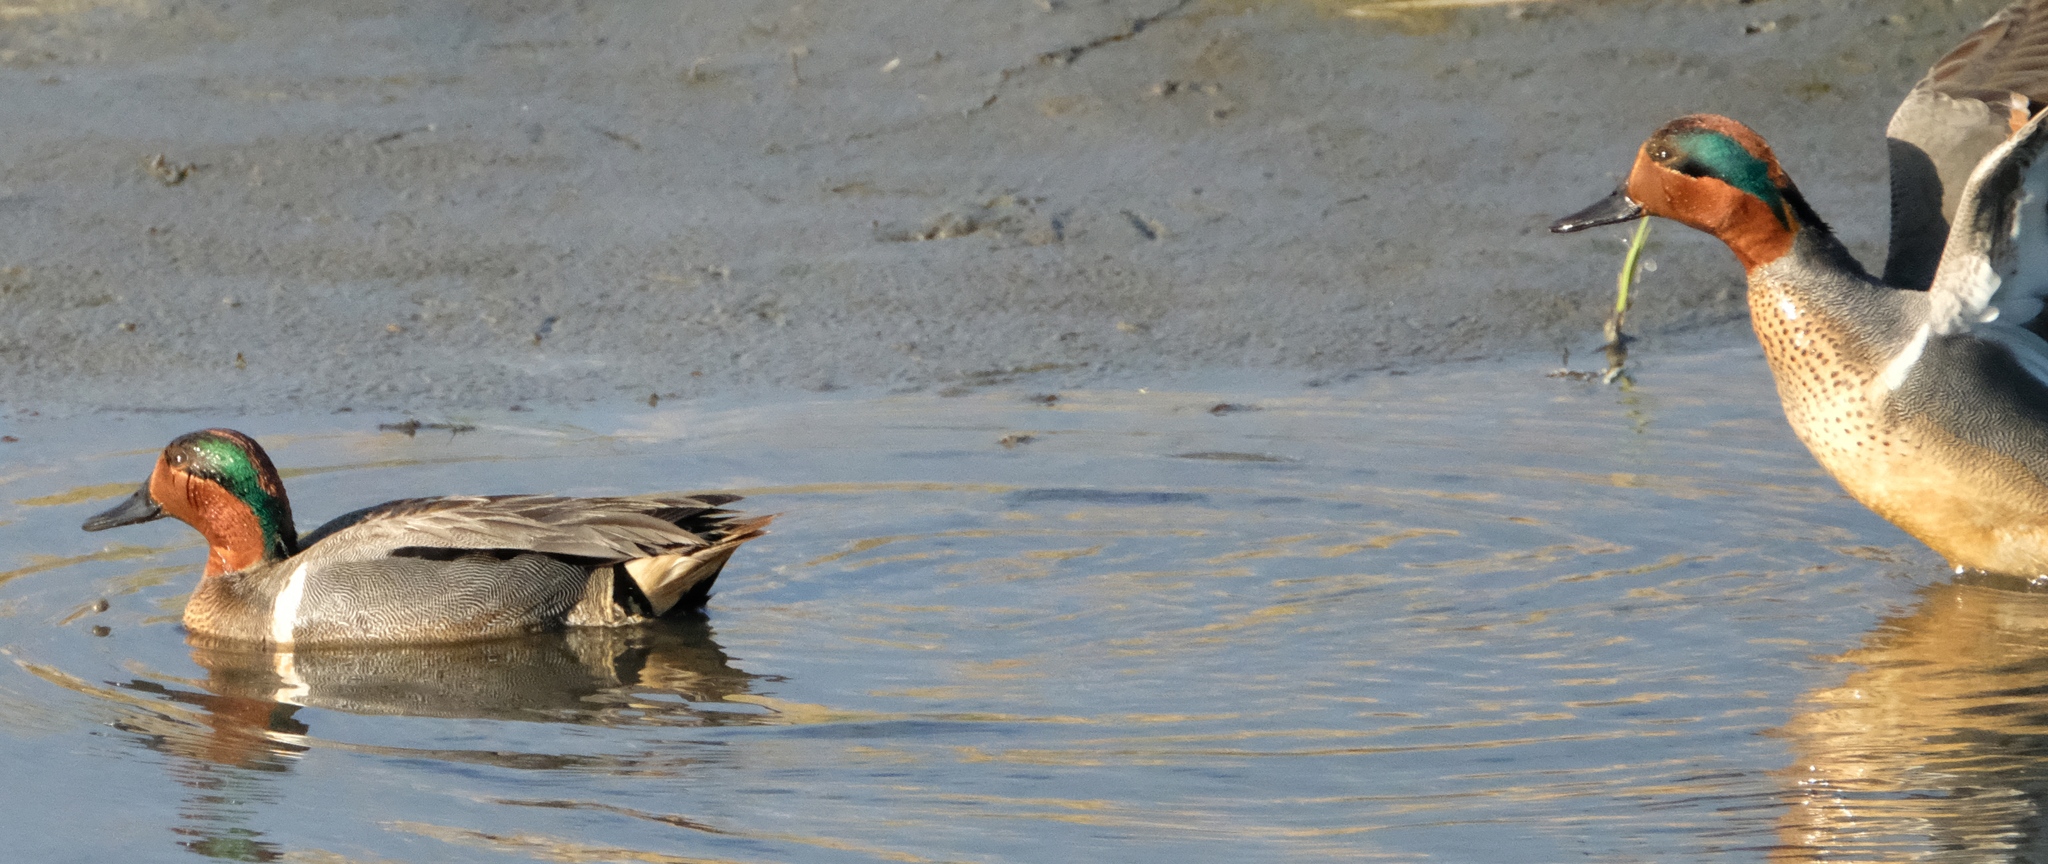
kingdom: Animalia
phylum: Chordata
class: Aves
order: Anseriformes
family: Anatidae
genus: Anas
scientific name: Anas carolinensis
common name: Green-winged teal
